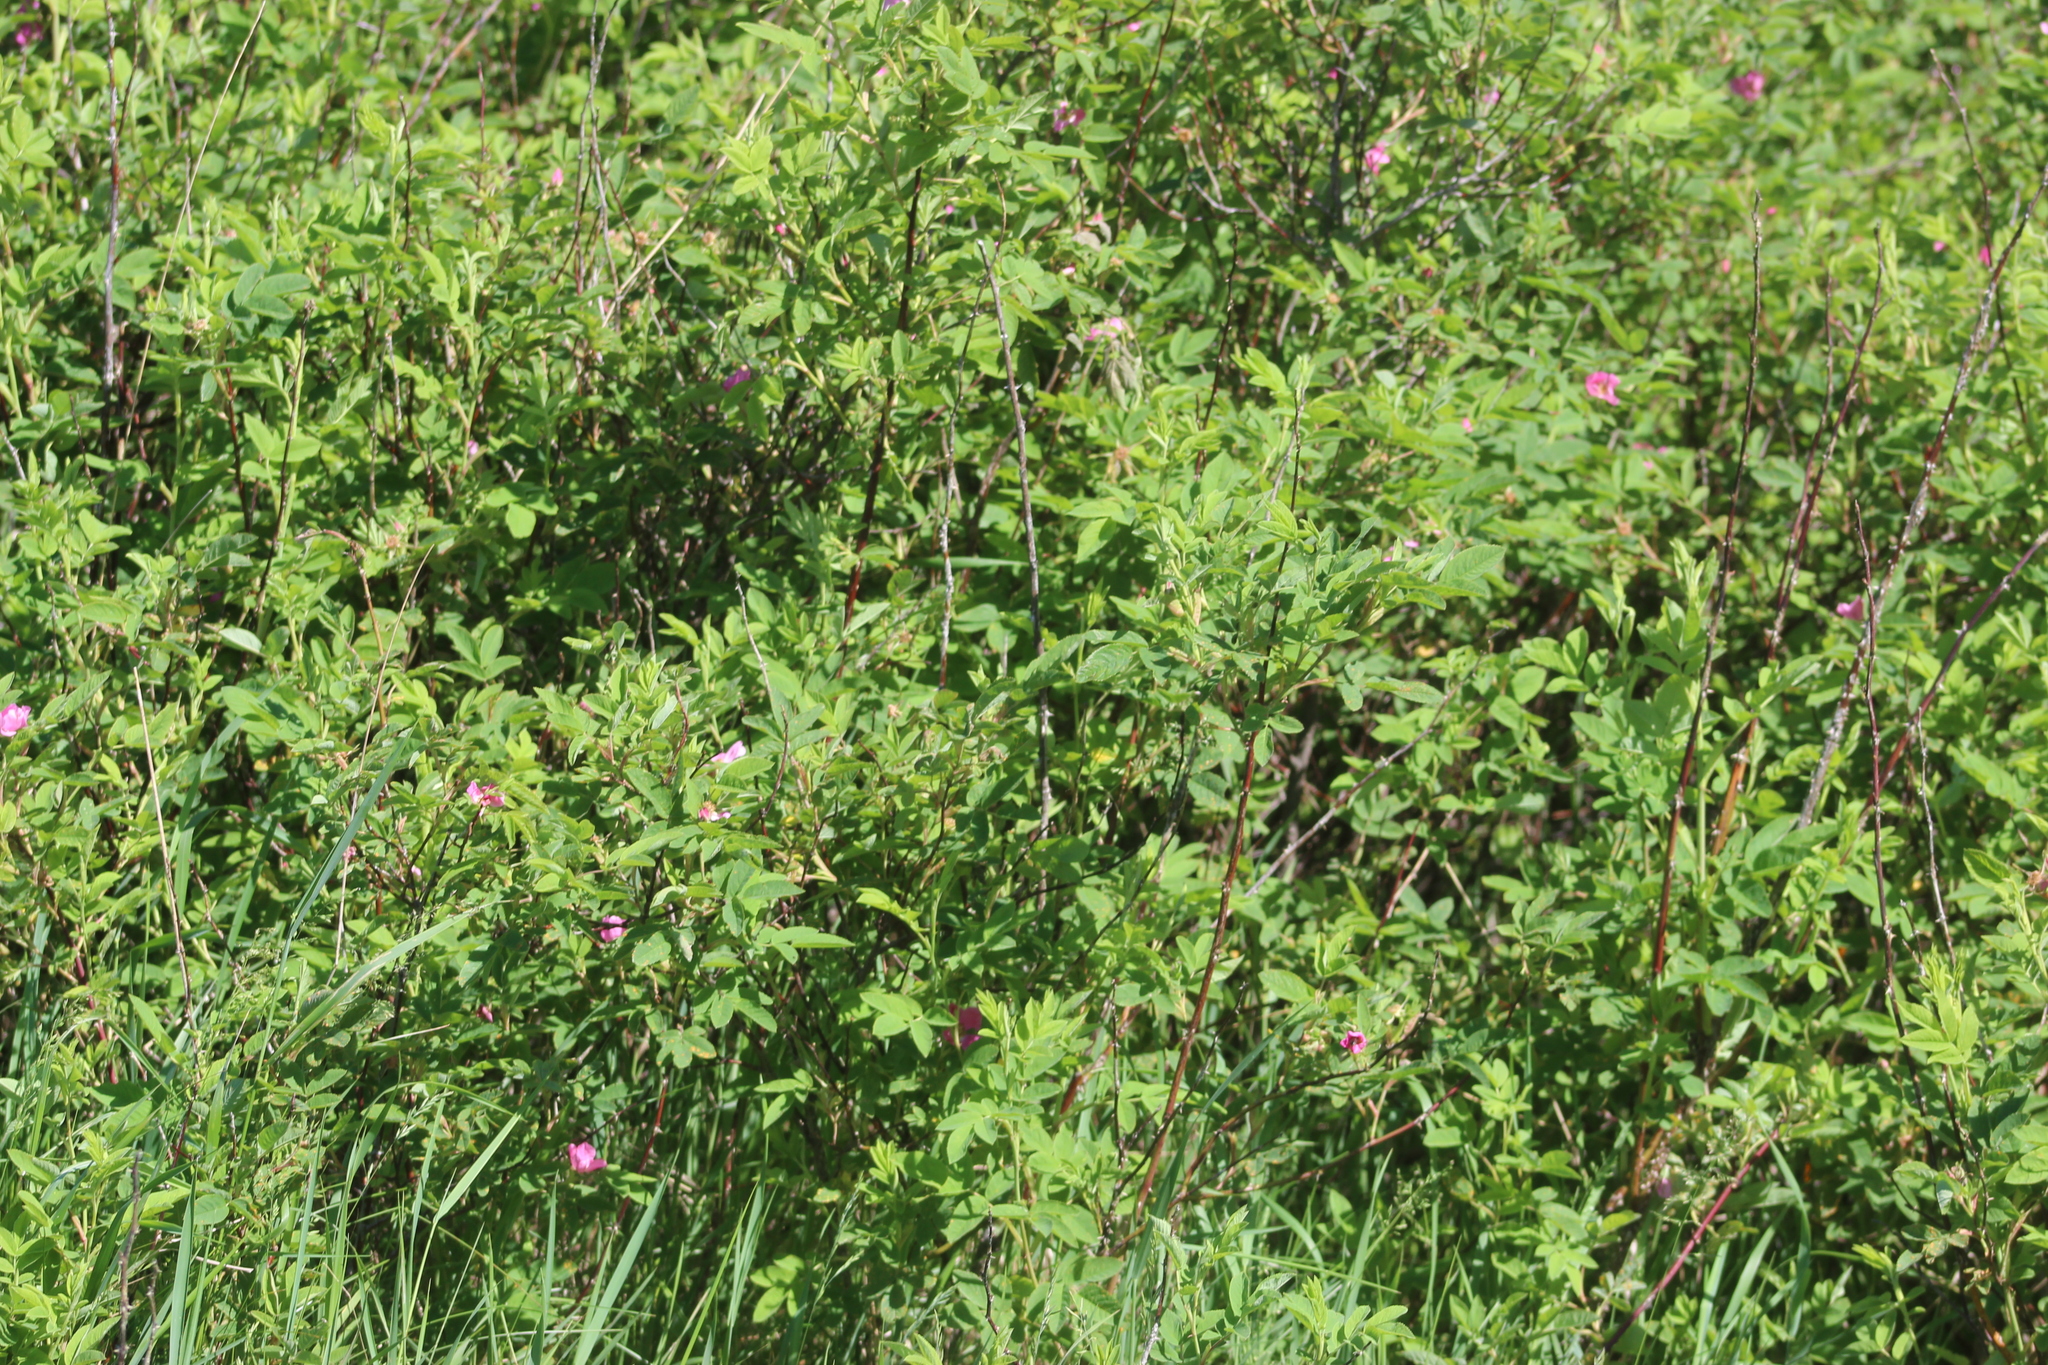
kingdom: Plantae
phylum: Tracheophyta
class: Magnoliopsida
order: Rosales
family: Rosaceae
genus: Rosa
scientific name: Rosa majalis
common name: Cinnamon rose
